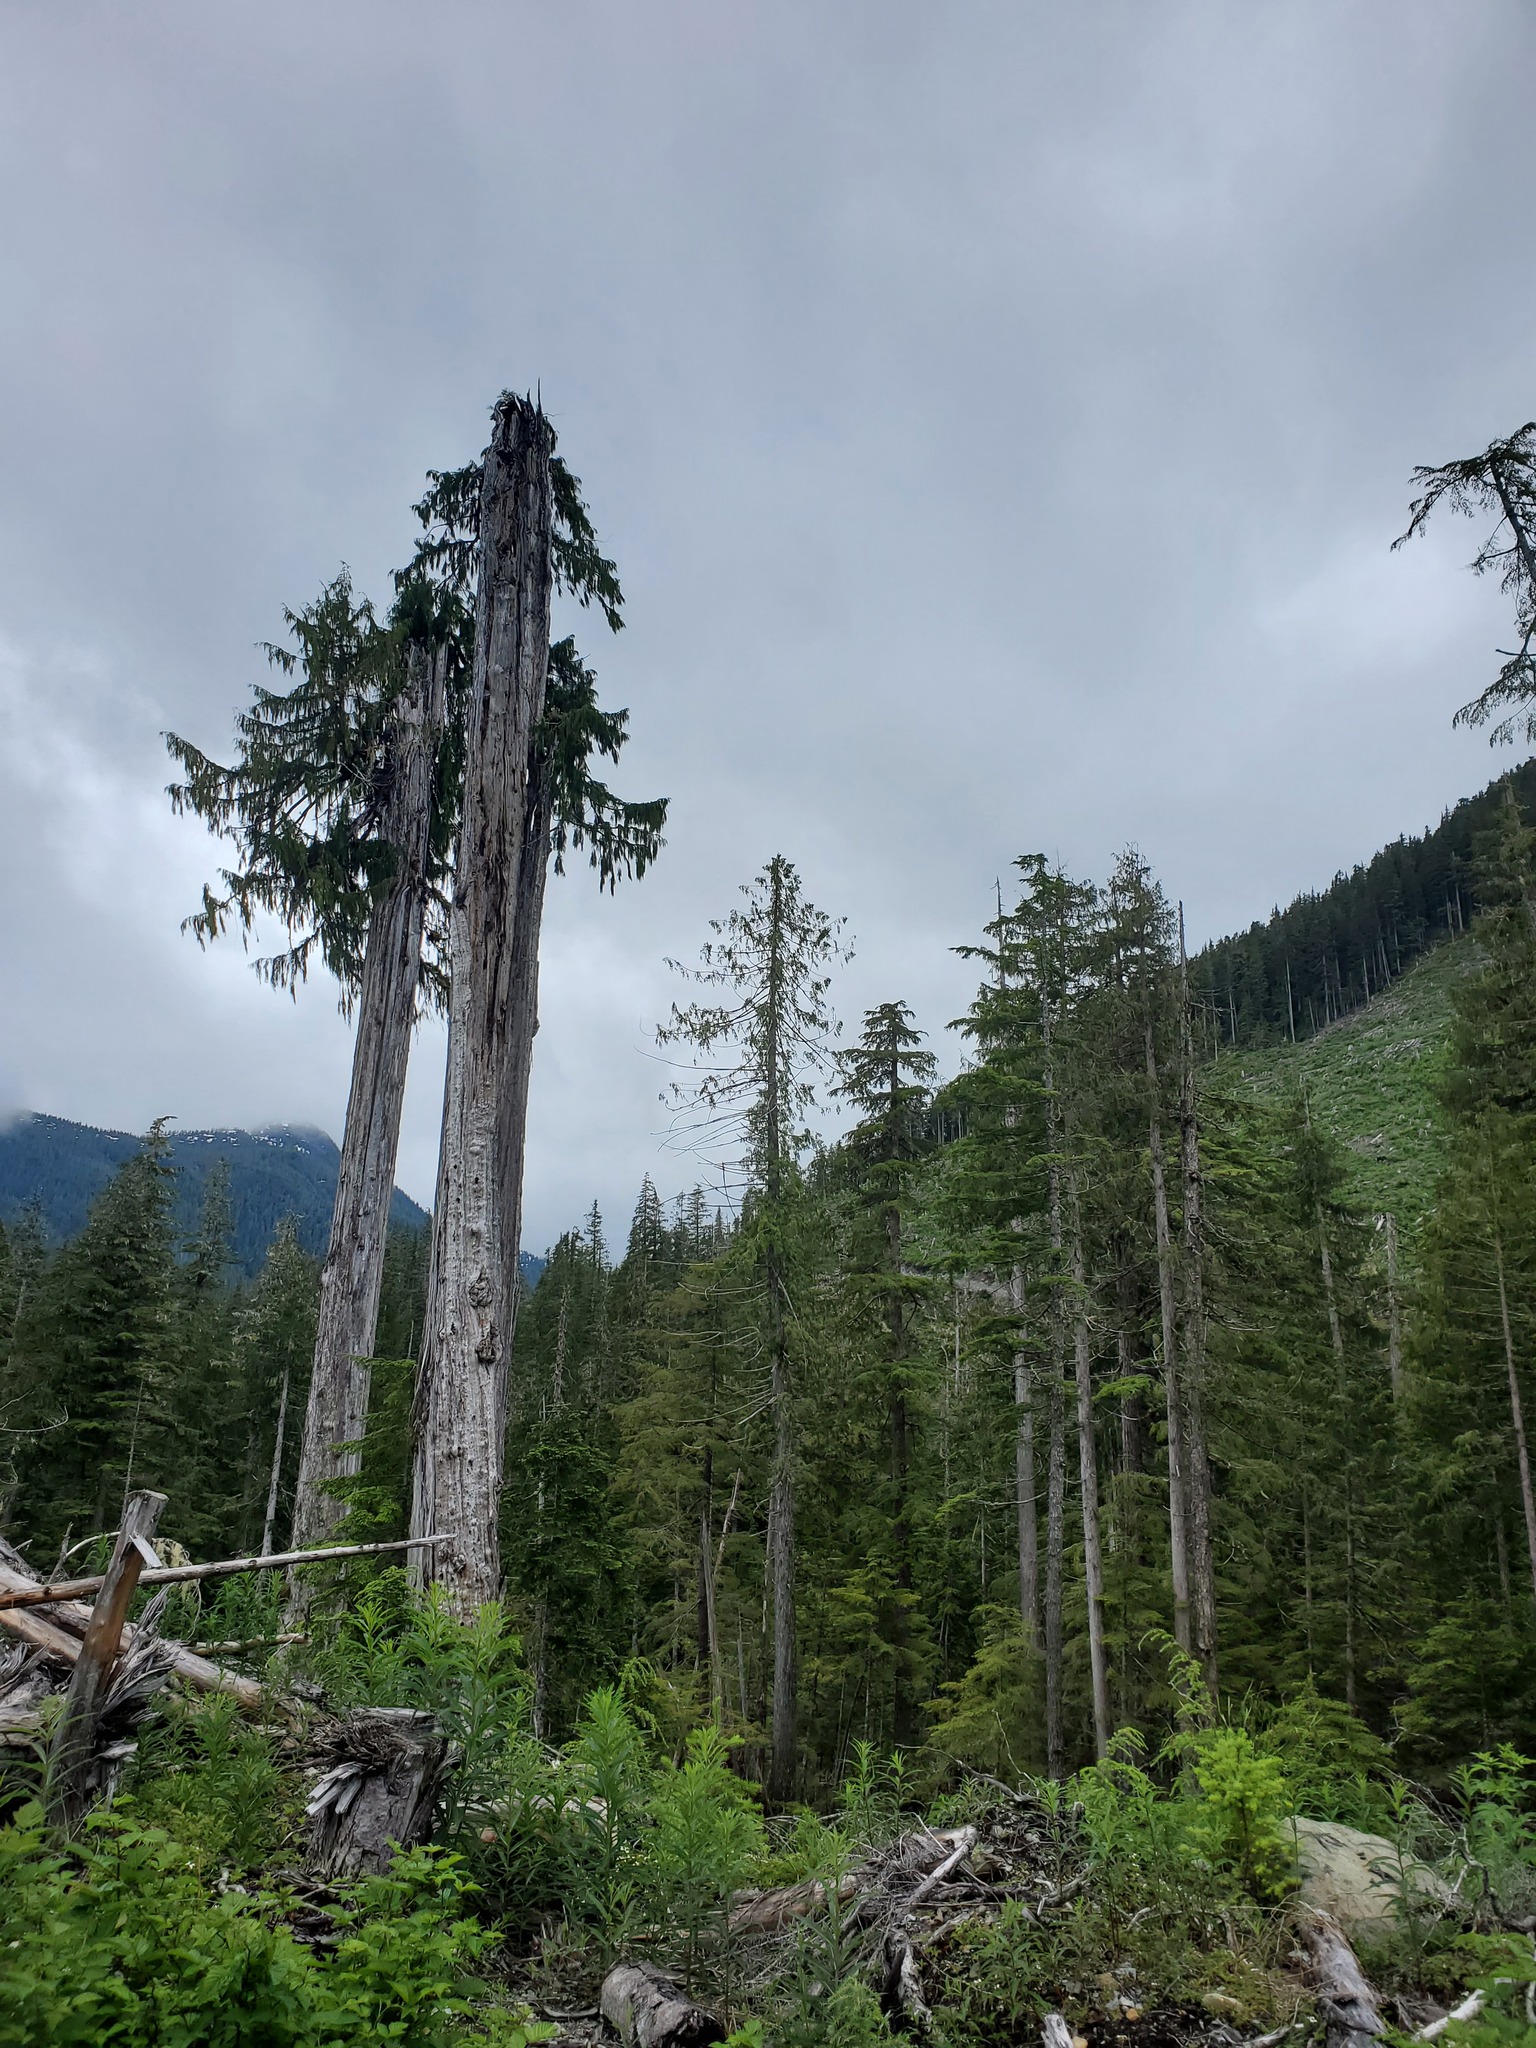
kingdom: Plantae
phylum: Tracheophyta
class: Pinopsida
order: Pinales
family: Cupressaceae
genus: Xanthocyparis
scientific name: Xanthocyparis nootkatensis
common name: Nootka cypress
